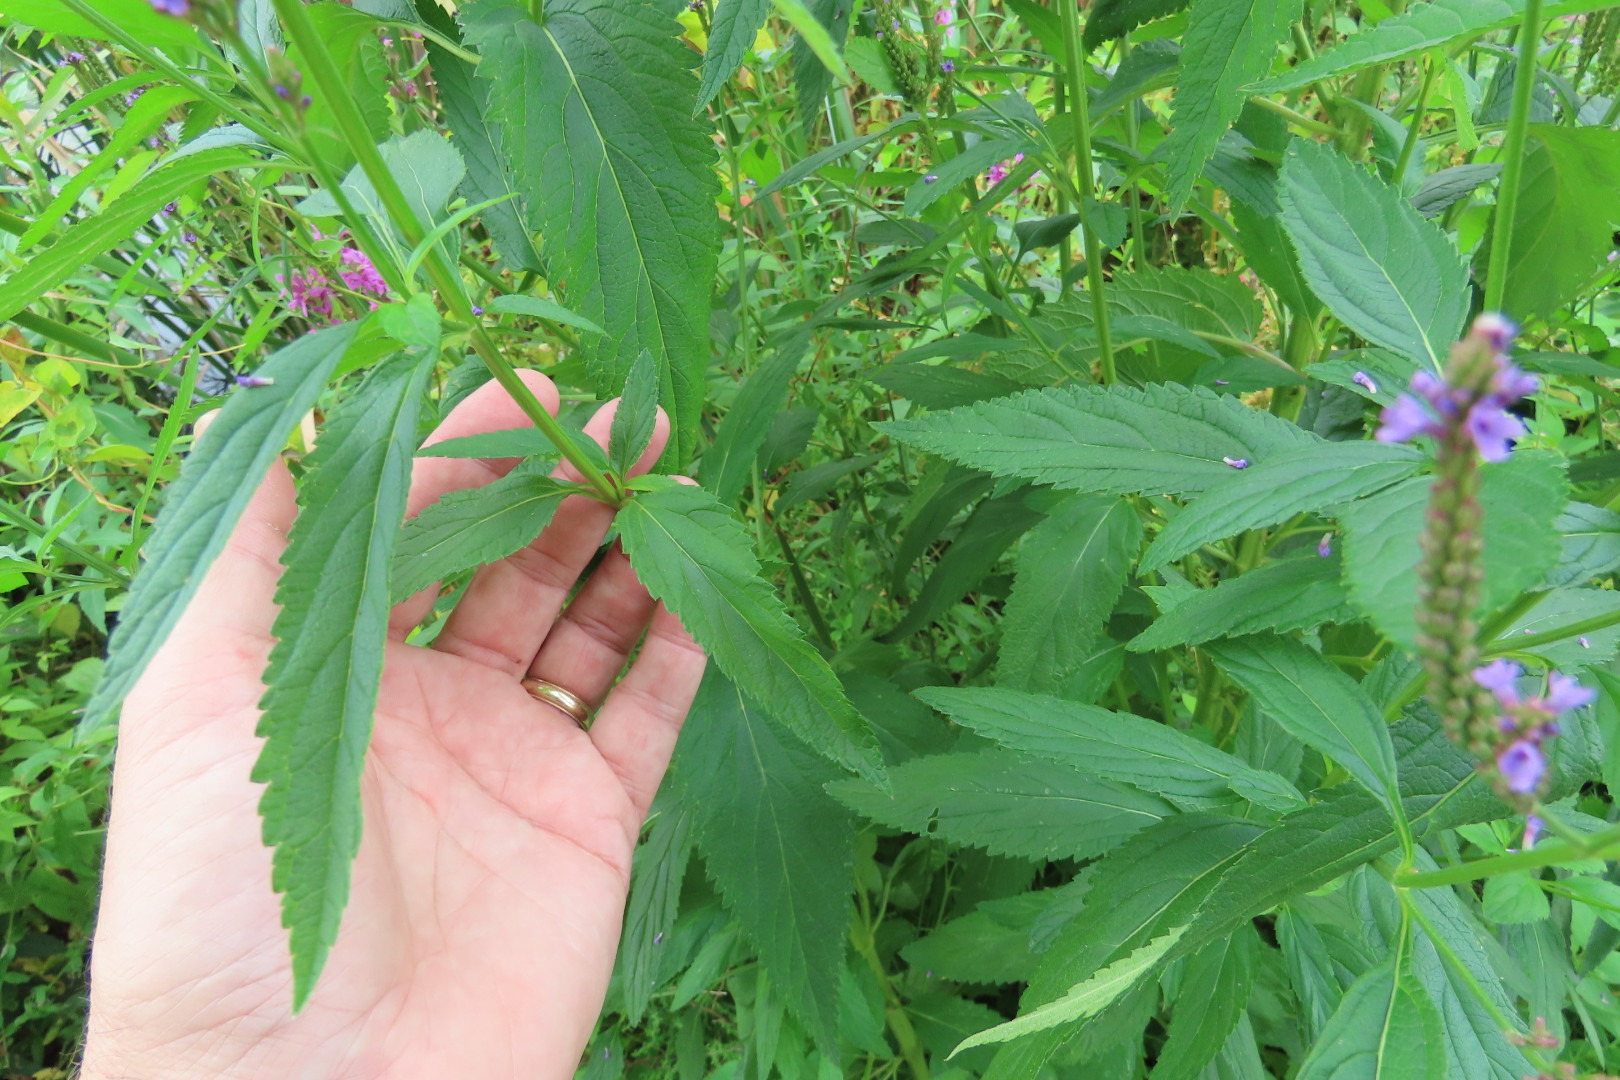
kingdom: Plantae
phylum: Tracheophyta
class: Magnoliopsida
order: Lamiales
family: Verbenaceae
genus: Verbena
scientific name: Verbena hastata
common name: American blue vervain
